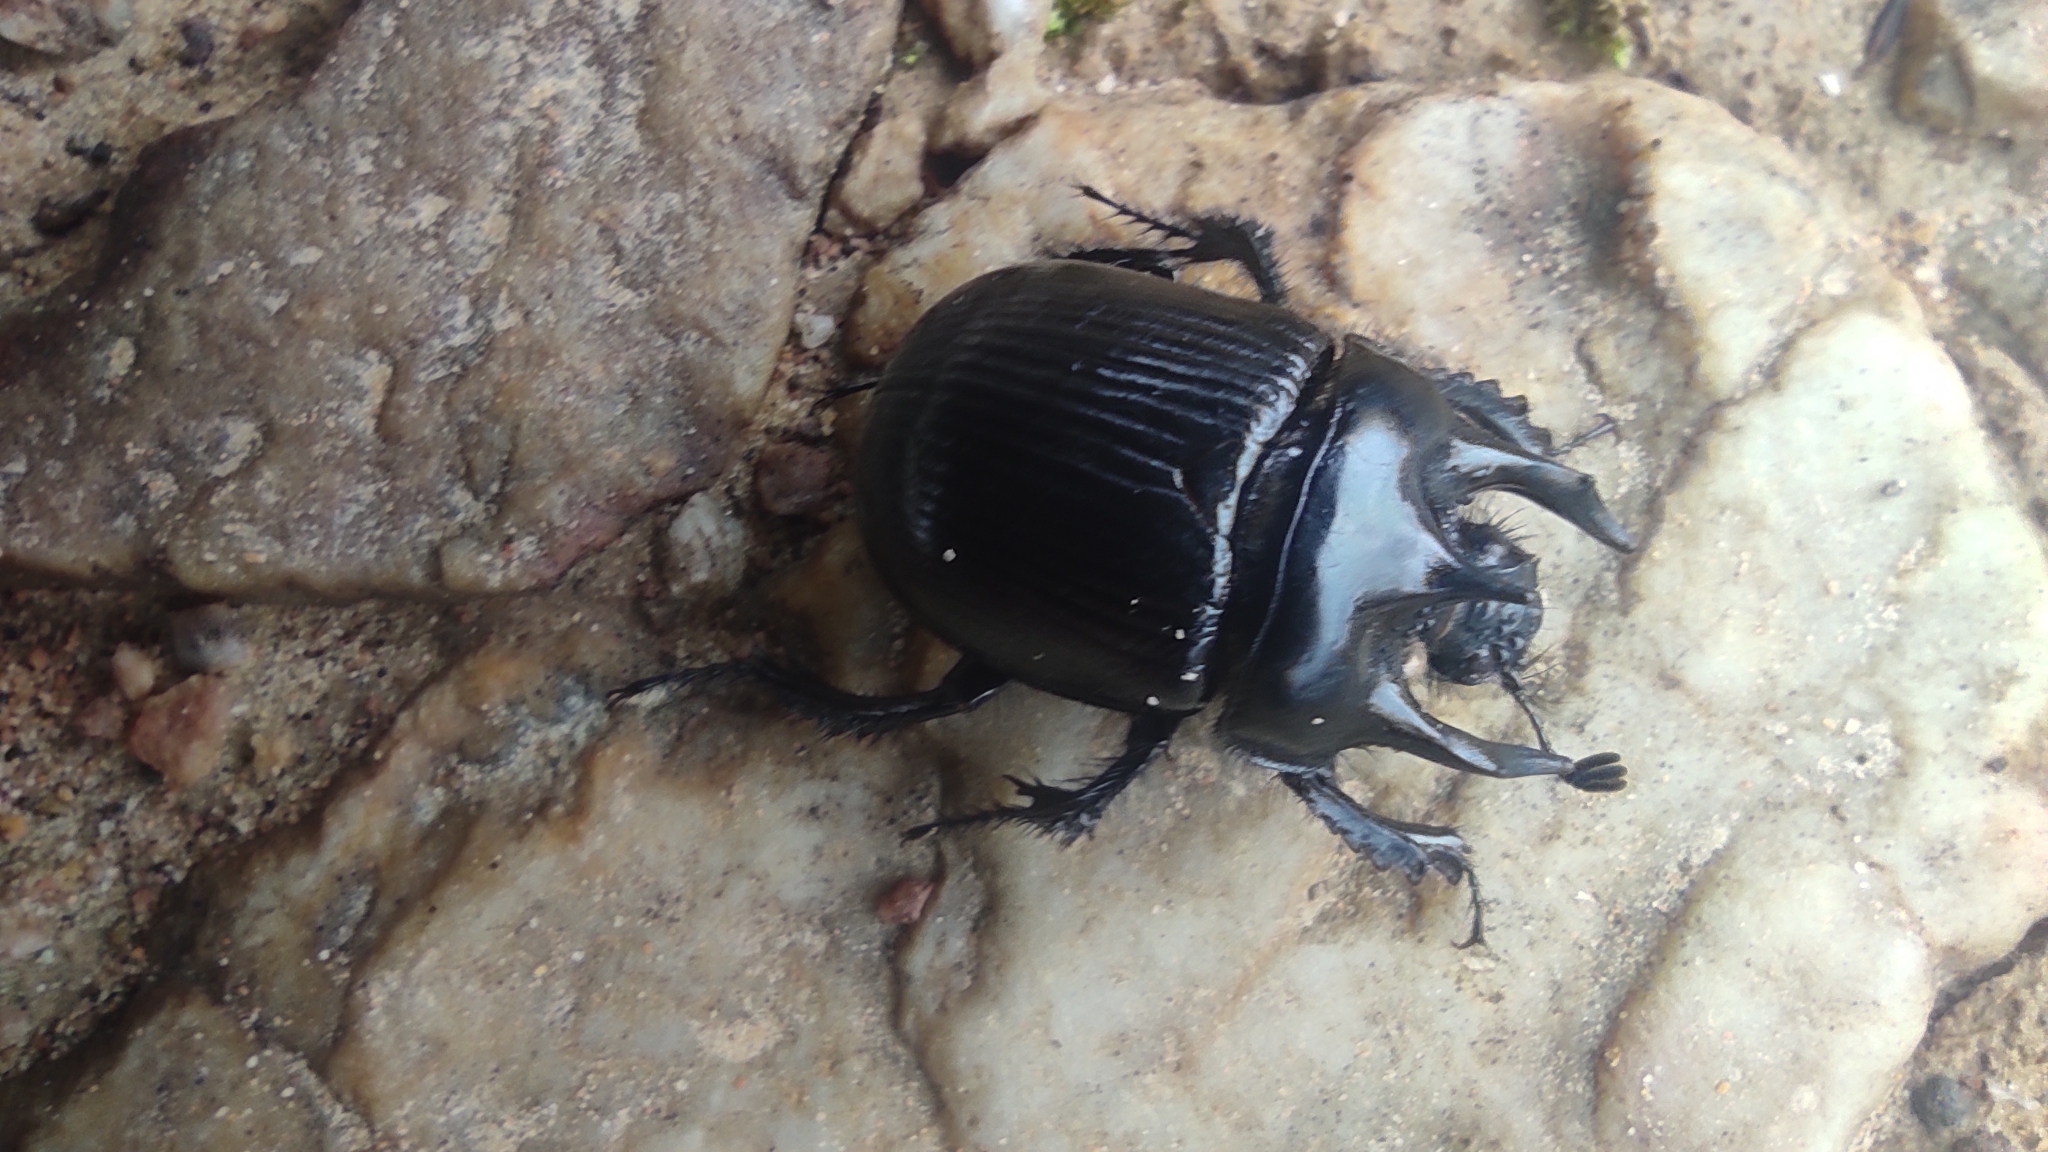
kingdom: Animalia
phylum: Arthropoda
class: Insecta
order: Coleoptera
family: Geotrupidae
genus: Typhaeus
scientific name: Typhaeus typhoeus
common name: Minotaur beetle
